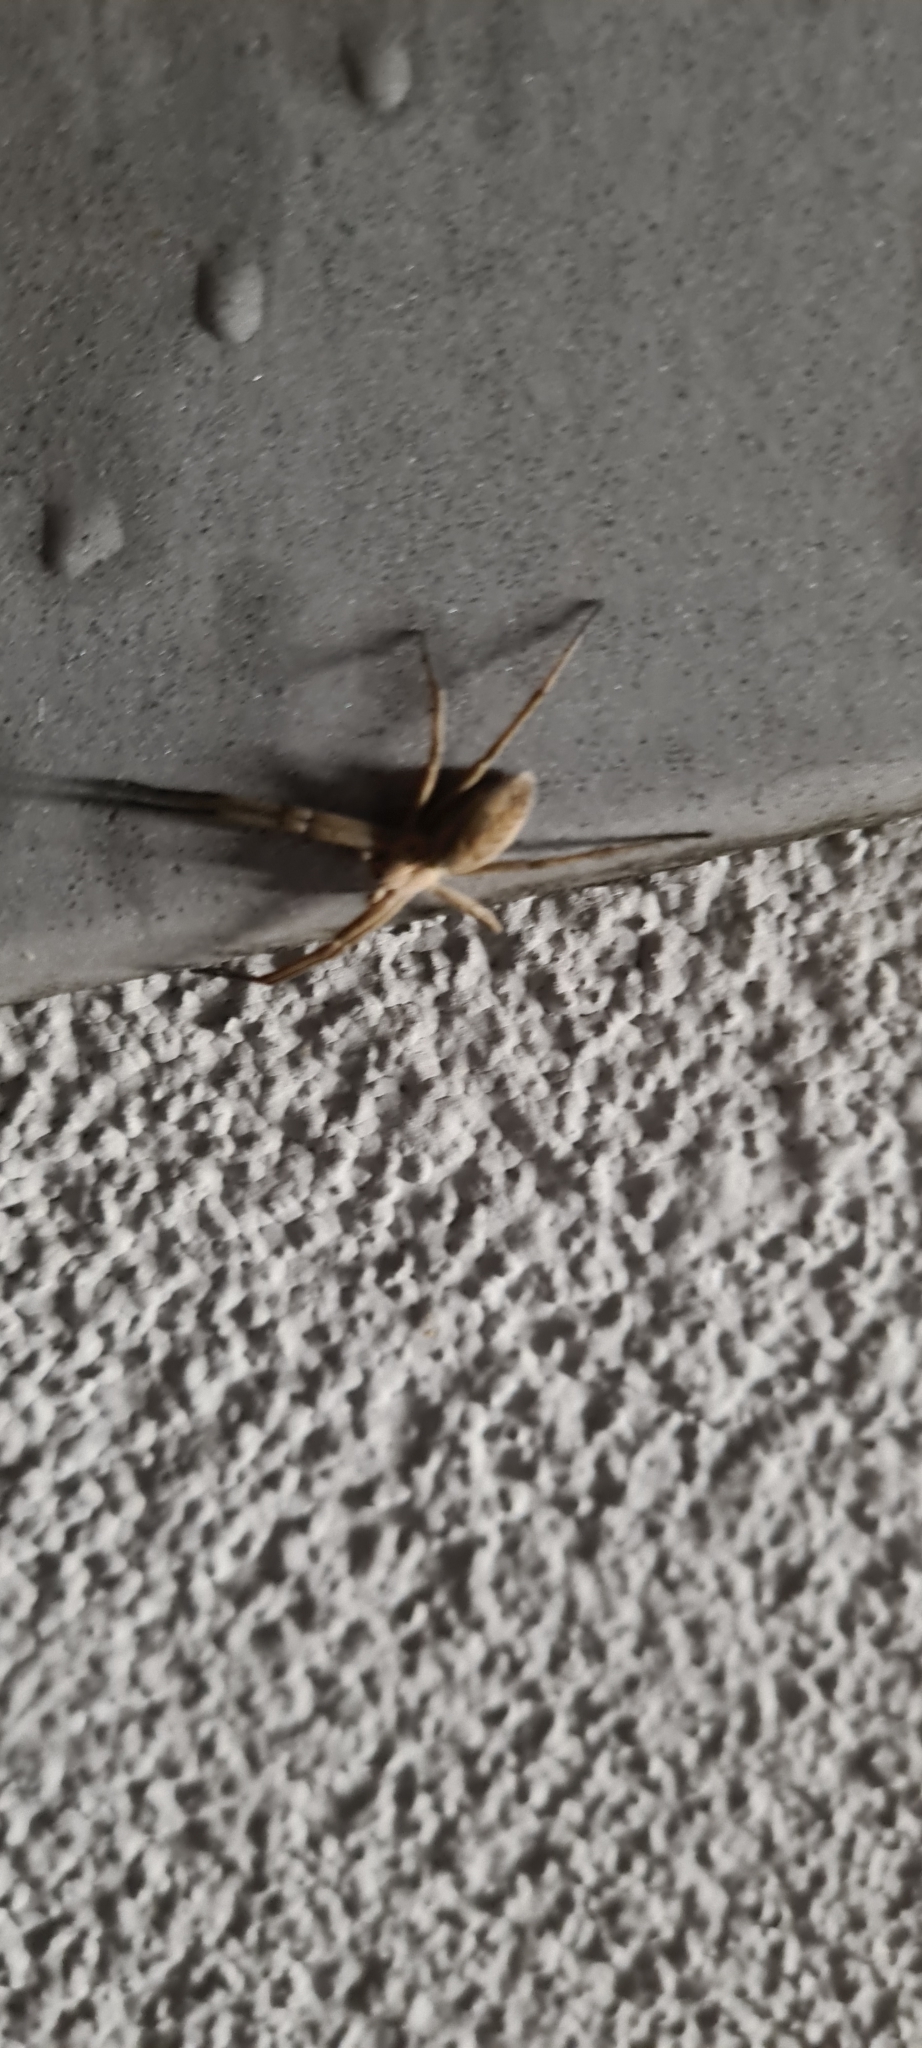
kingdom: Animalia
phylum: Arthropoda
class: Arachnida
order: Araneae
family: Pisauridae
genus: Pisaura
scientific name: Pisaura mirabilis
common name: Tent spider
